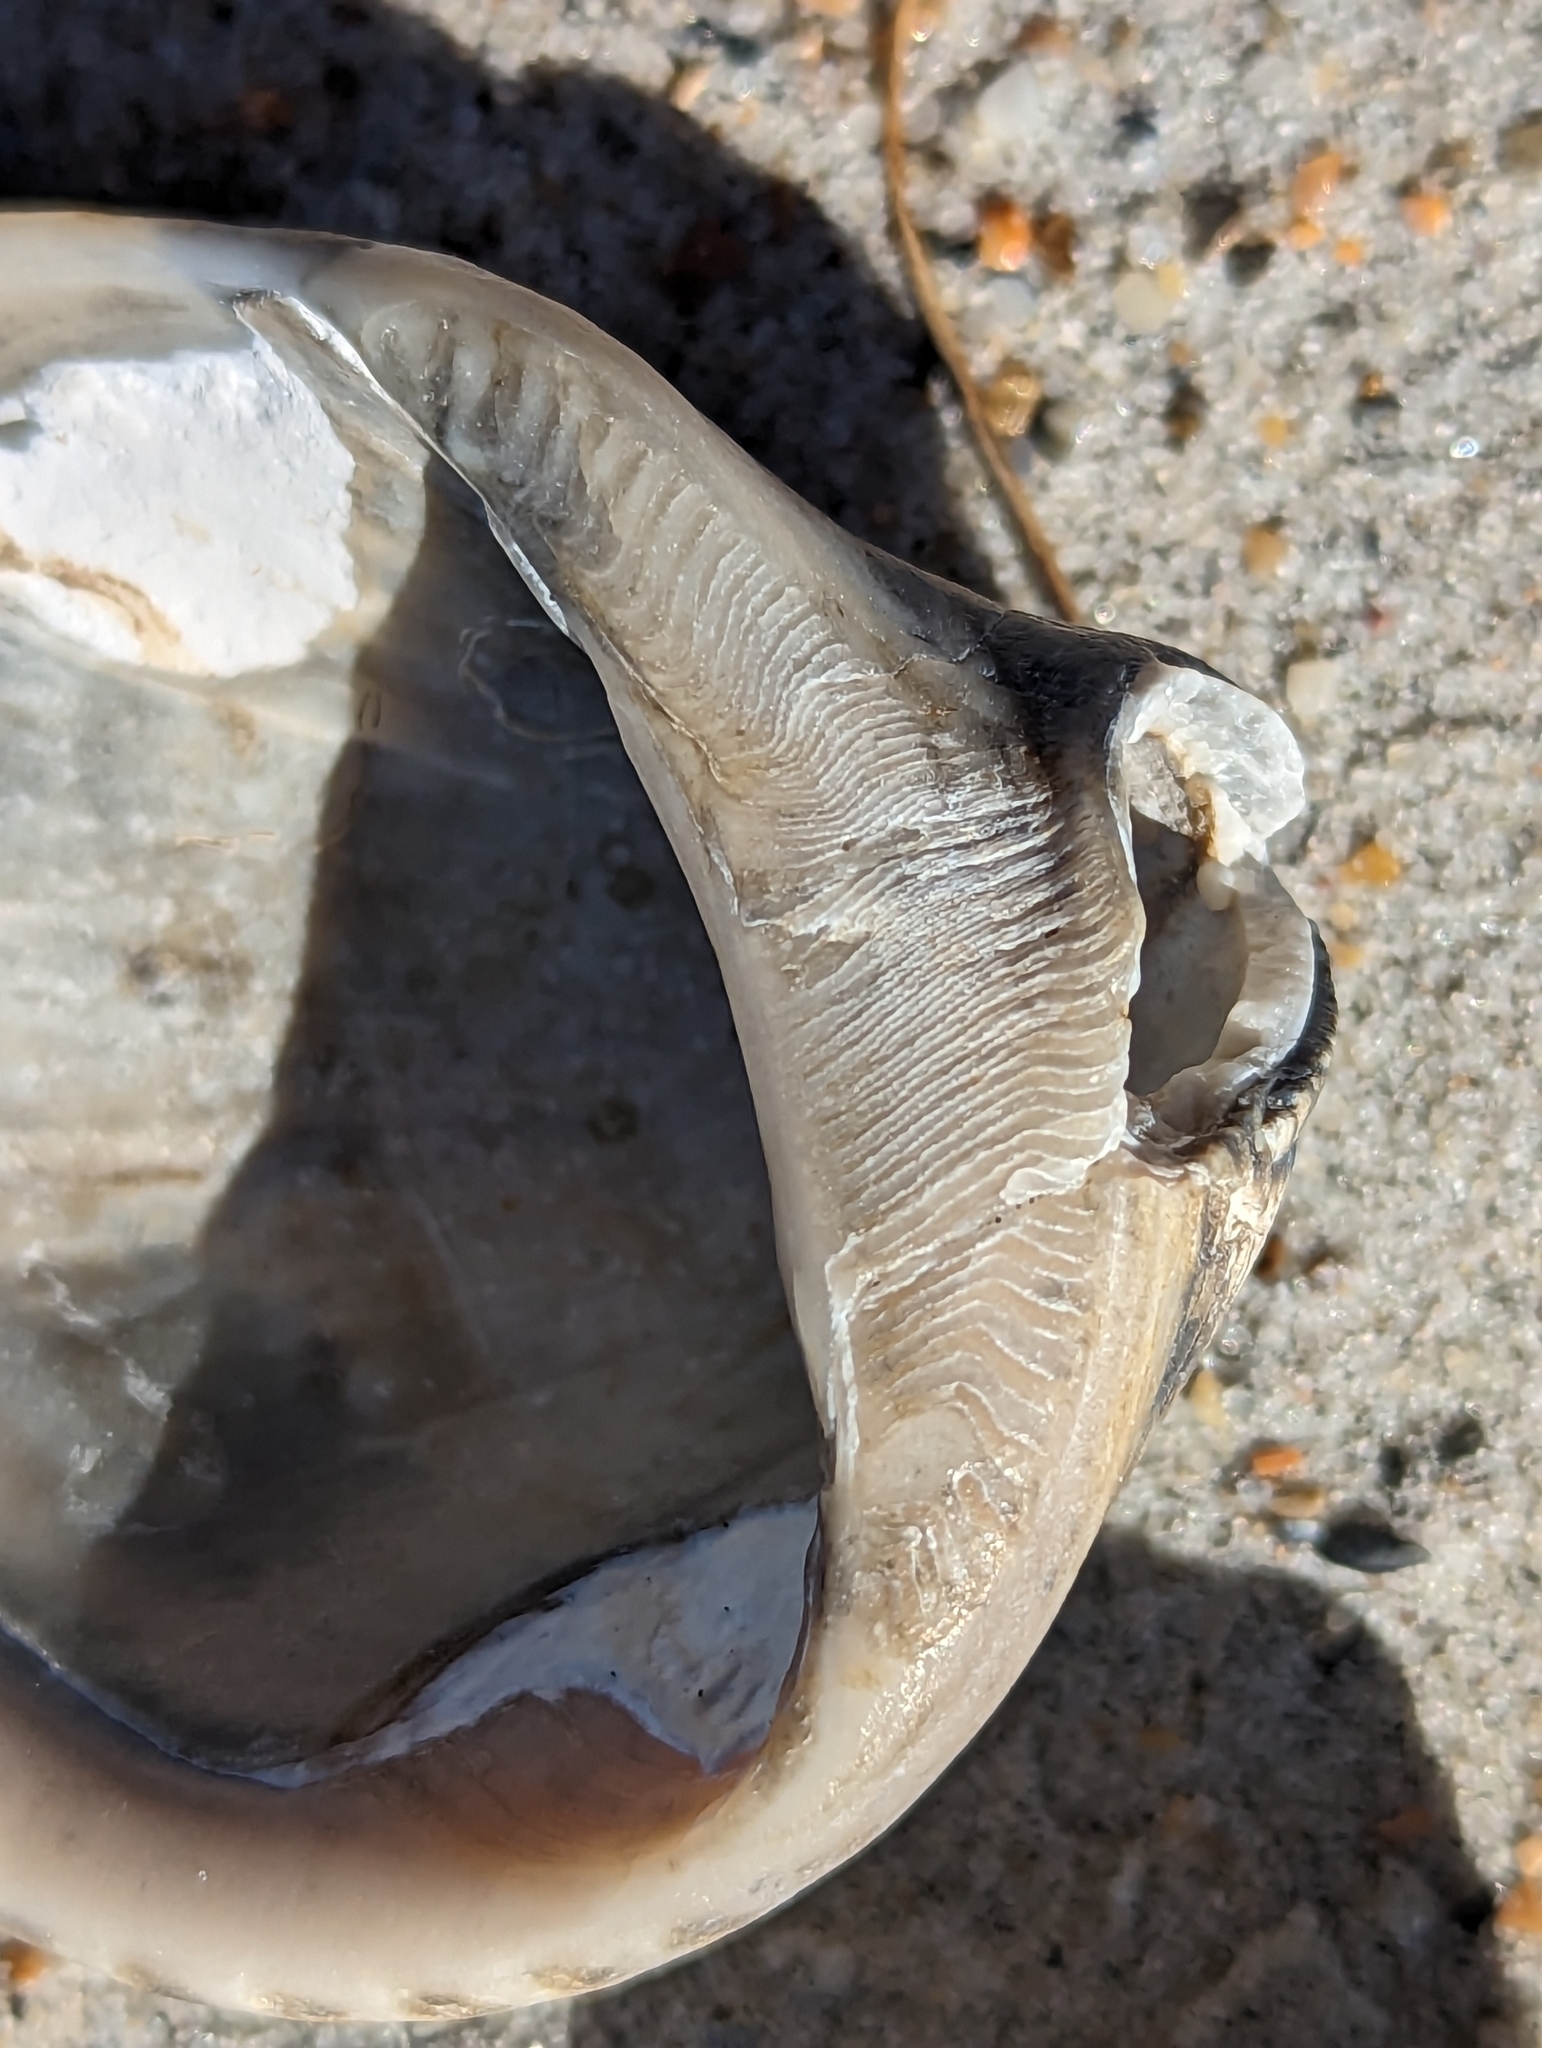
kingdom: Animalia
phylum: Mollusca
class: Bivalvia
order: Arcida
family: Noetiidae
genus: Noetia
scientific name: Noetia ponderosa
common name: Ponderous ark
